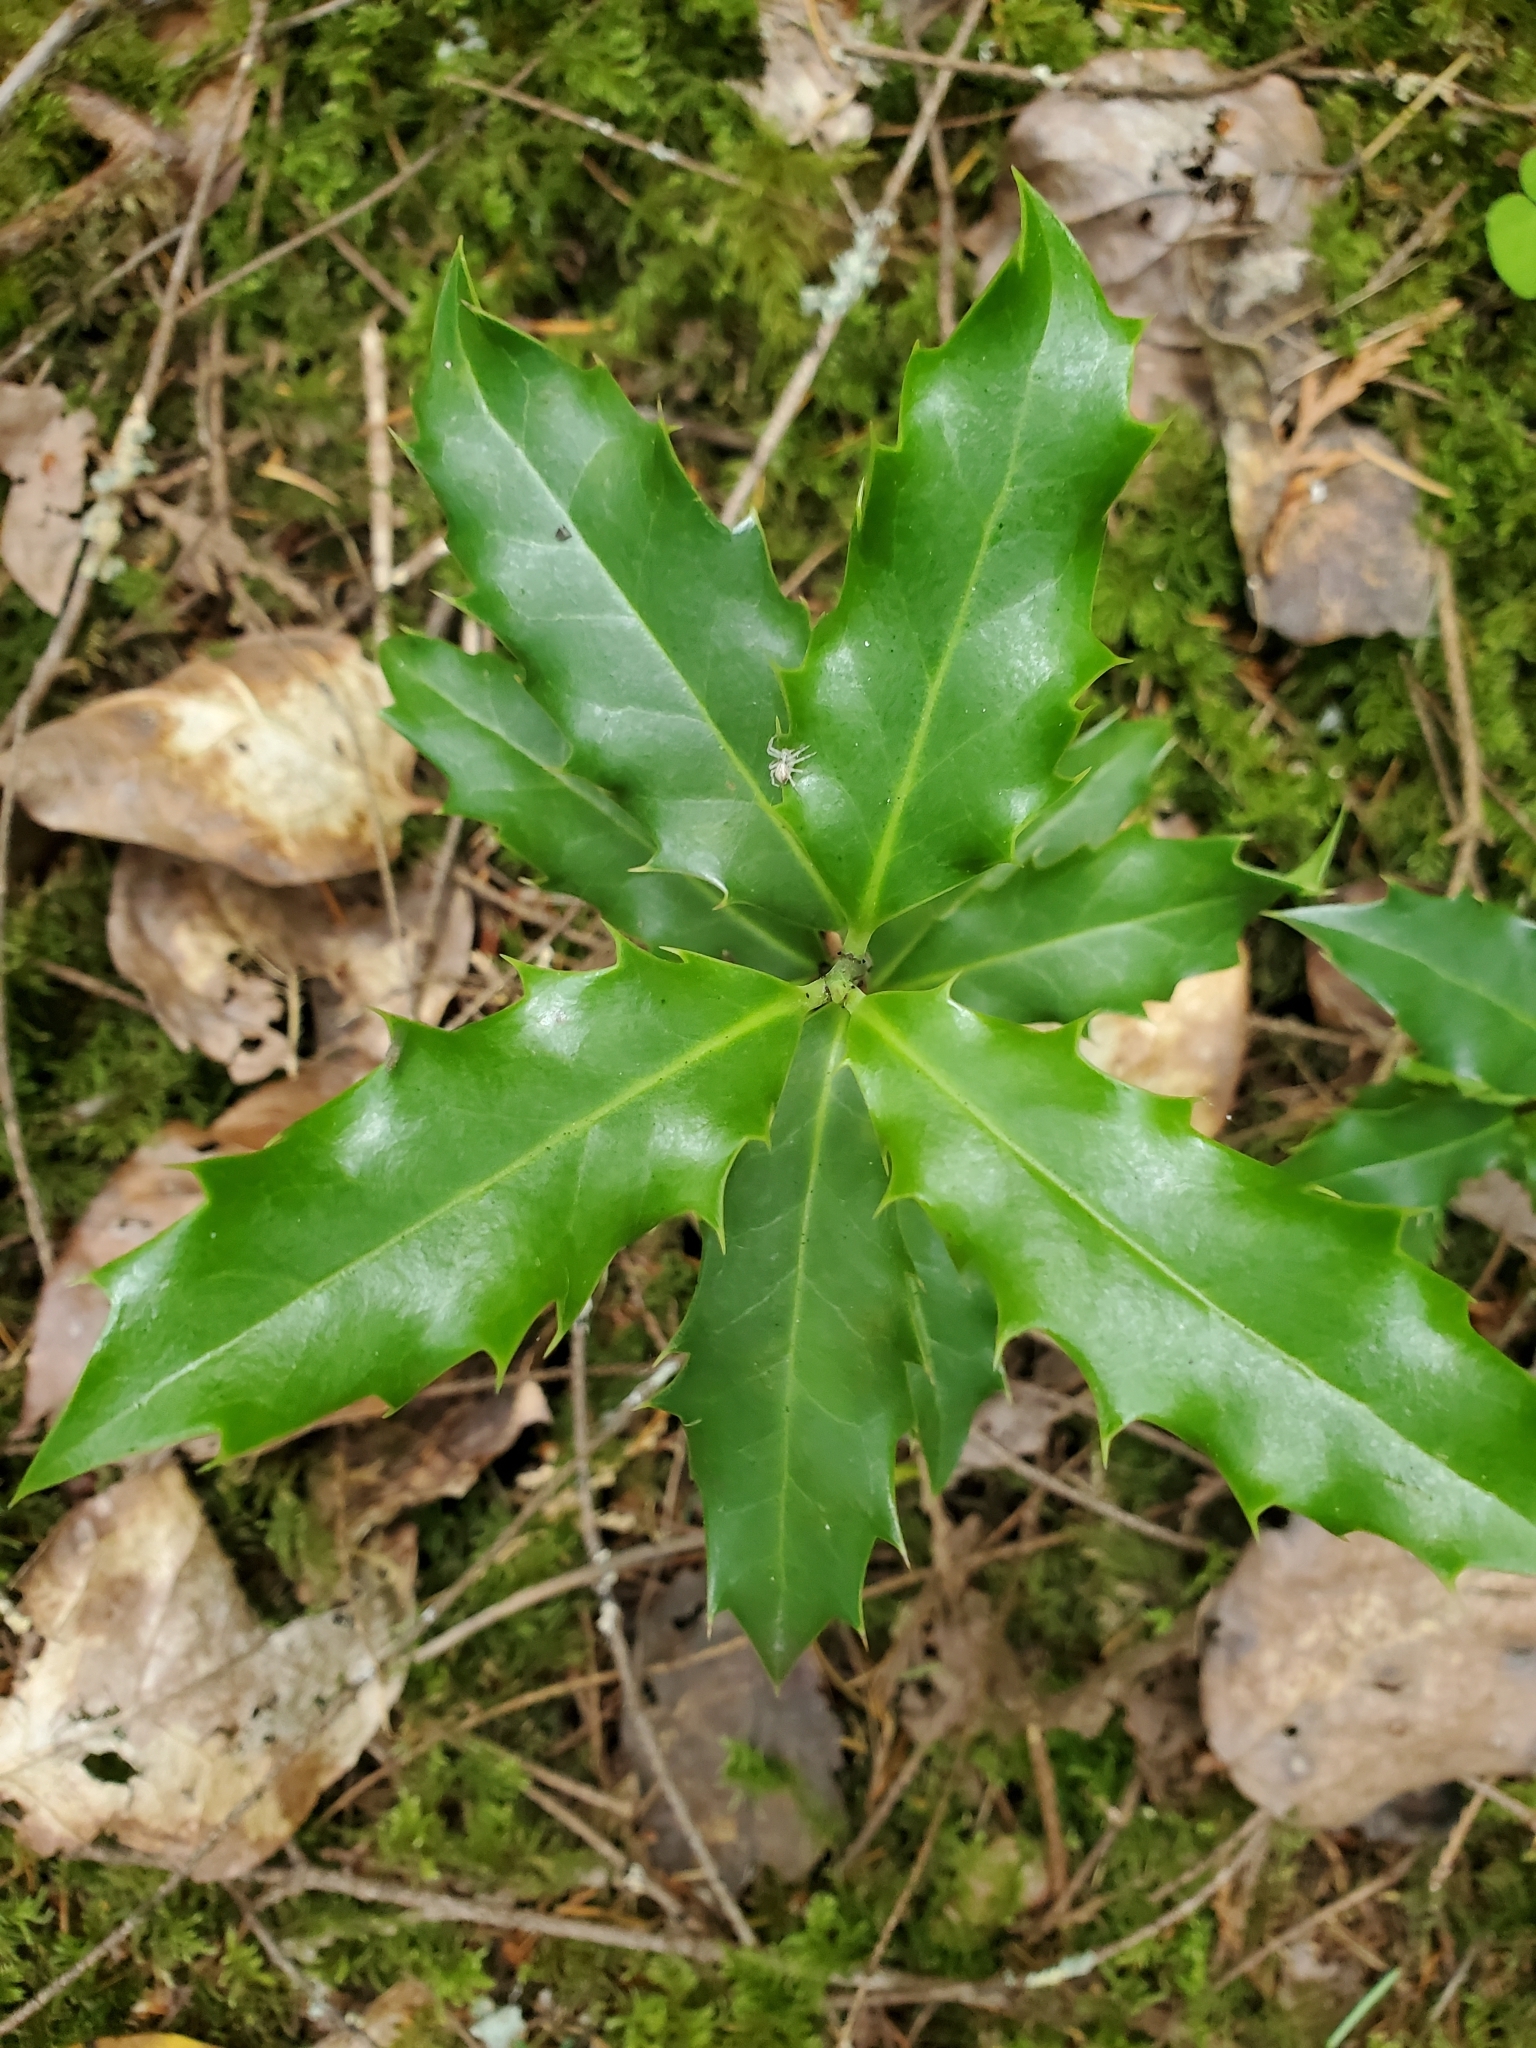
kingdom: Plantae
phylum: Tracheophyta
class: Magnoliopsida
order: Aquifoliales
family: Aquifoliaceae
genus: Ilex
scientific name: Ilex aquifolium
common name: English holly
